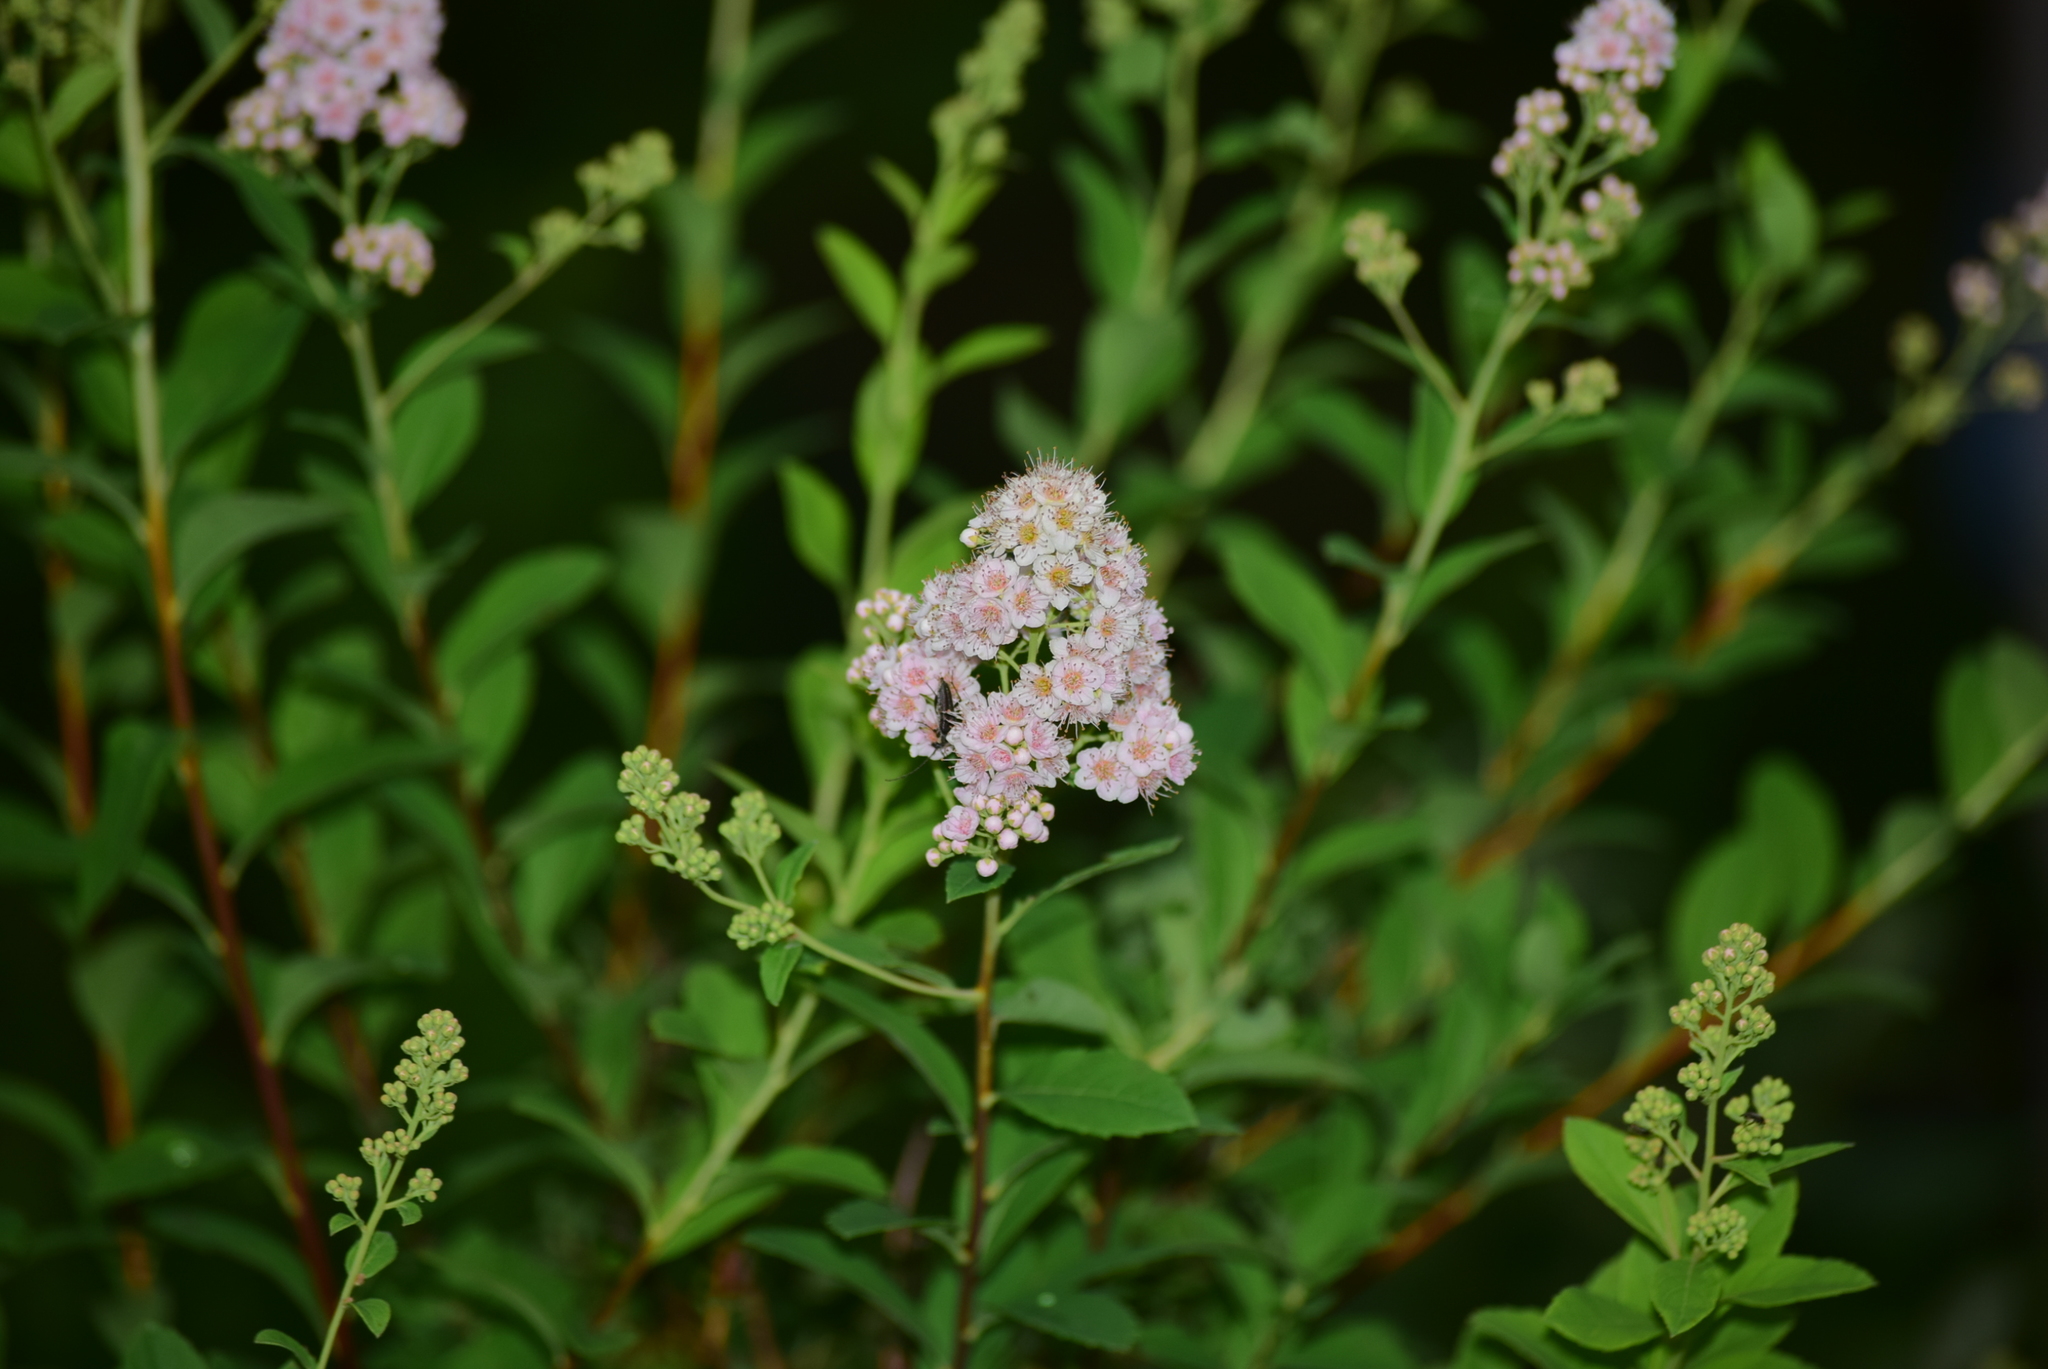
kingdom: Plantae
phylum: Tracheophyta
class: Magnoliopsida
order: Rosales
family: Rosaceae
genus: Spiraea
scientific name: Spiraea alba
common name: Pale bridewort
